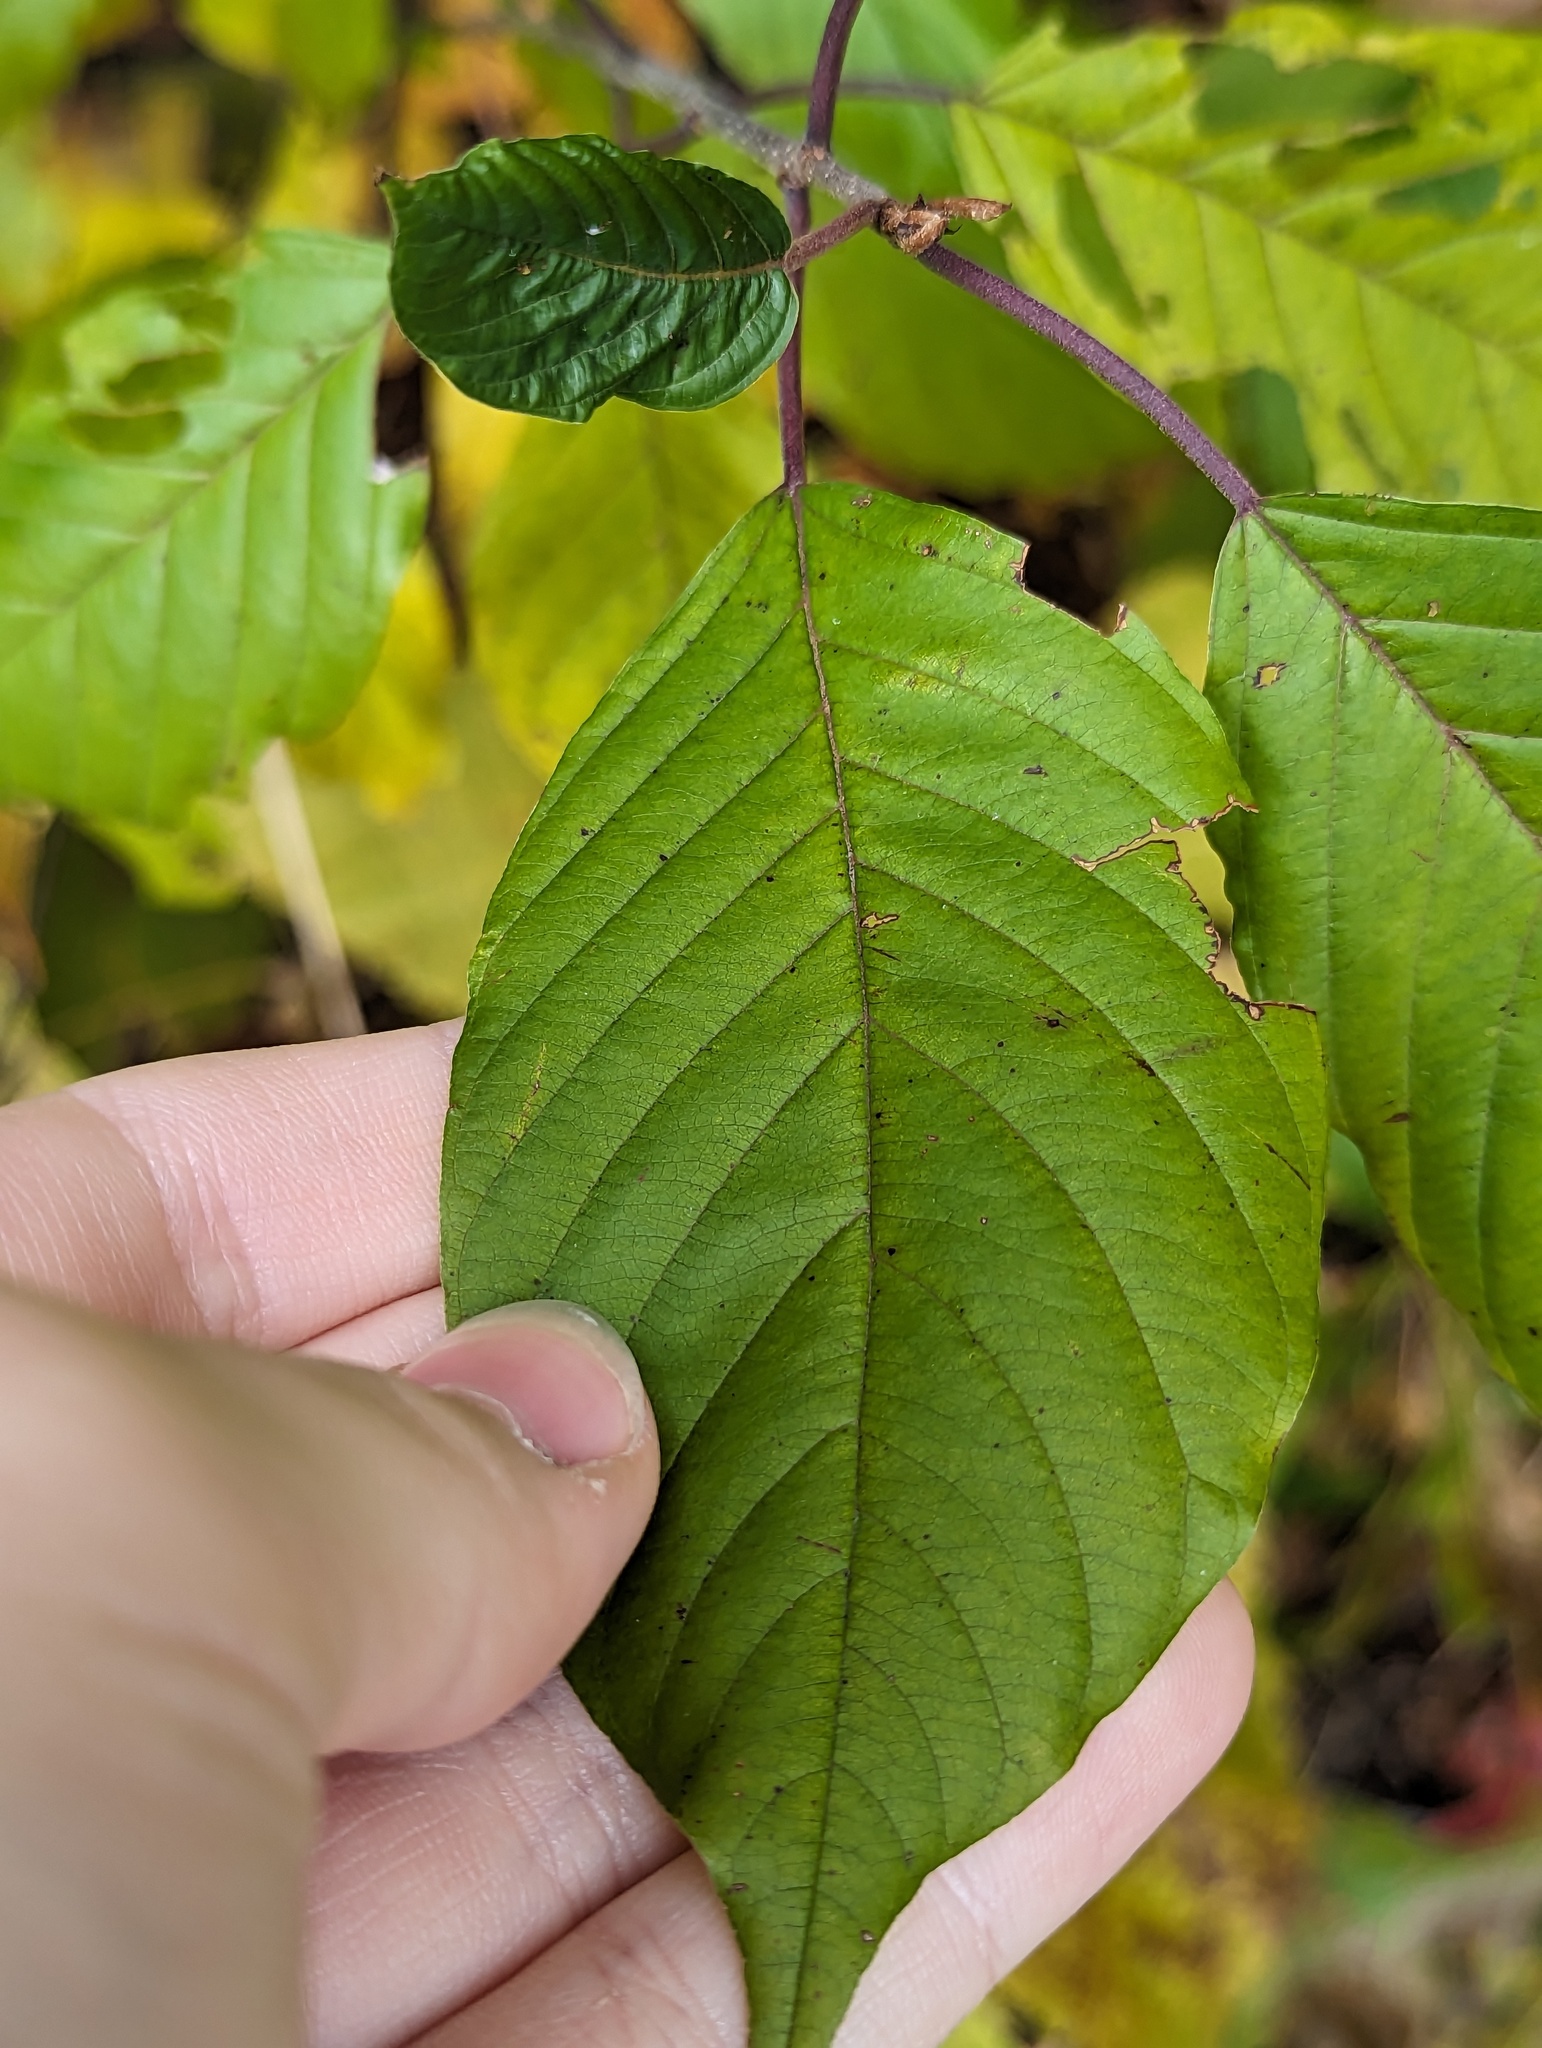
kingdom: Plantae
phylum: Tracheophyta
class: Magnoliopsida
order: Rosales
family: Rhamnaceae
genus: Frangula
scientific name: Frangula alnus
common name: Alder buckthorn
